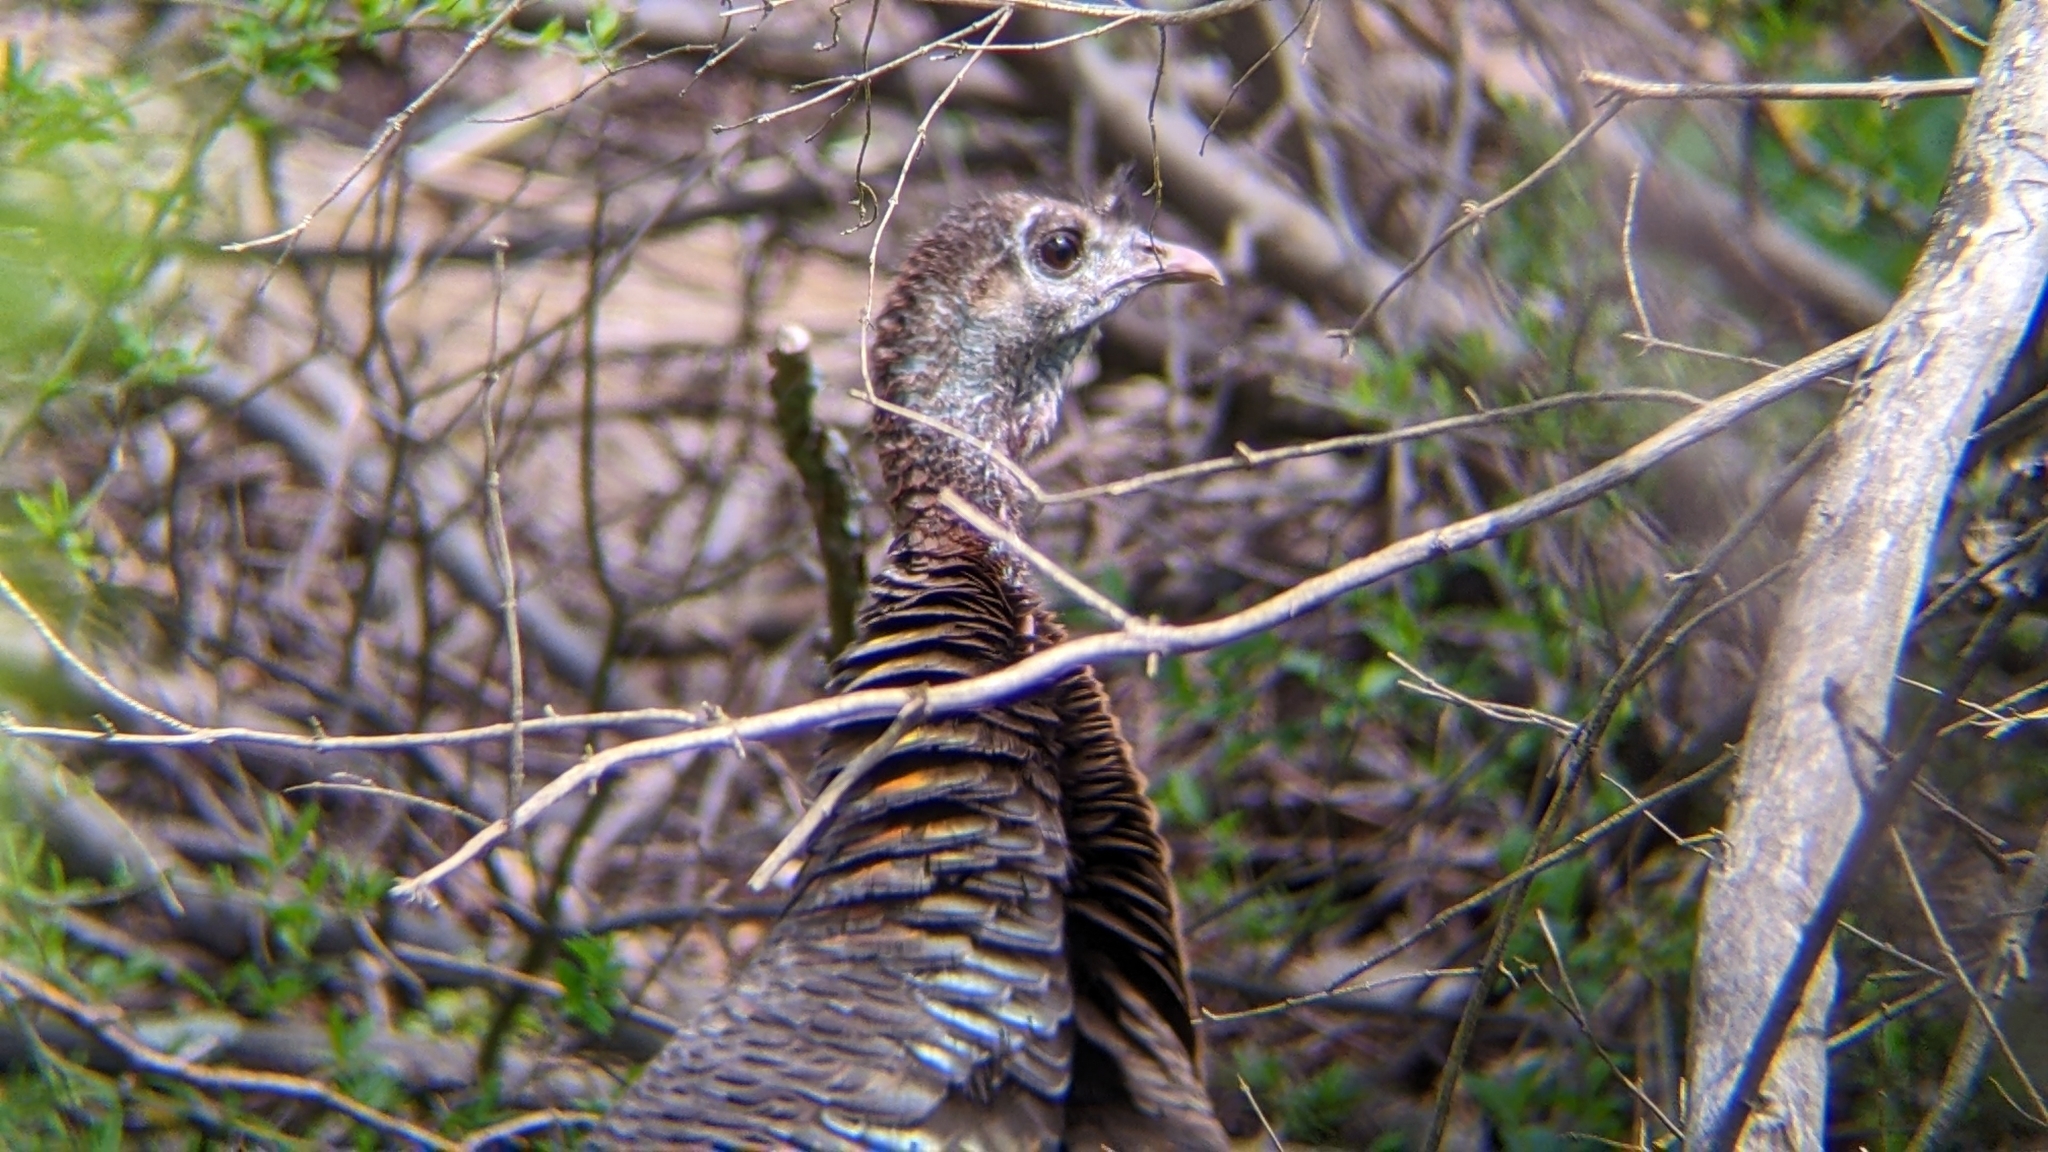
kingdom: Animalia
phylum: Chordata
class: Aves
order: Galliformes
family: Phasianidae
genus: Meleagris
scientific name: Meleagris gallopavo
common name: Wild turkey
